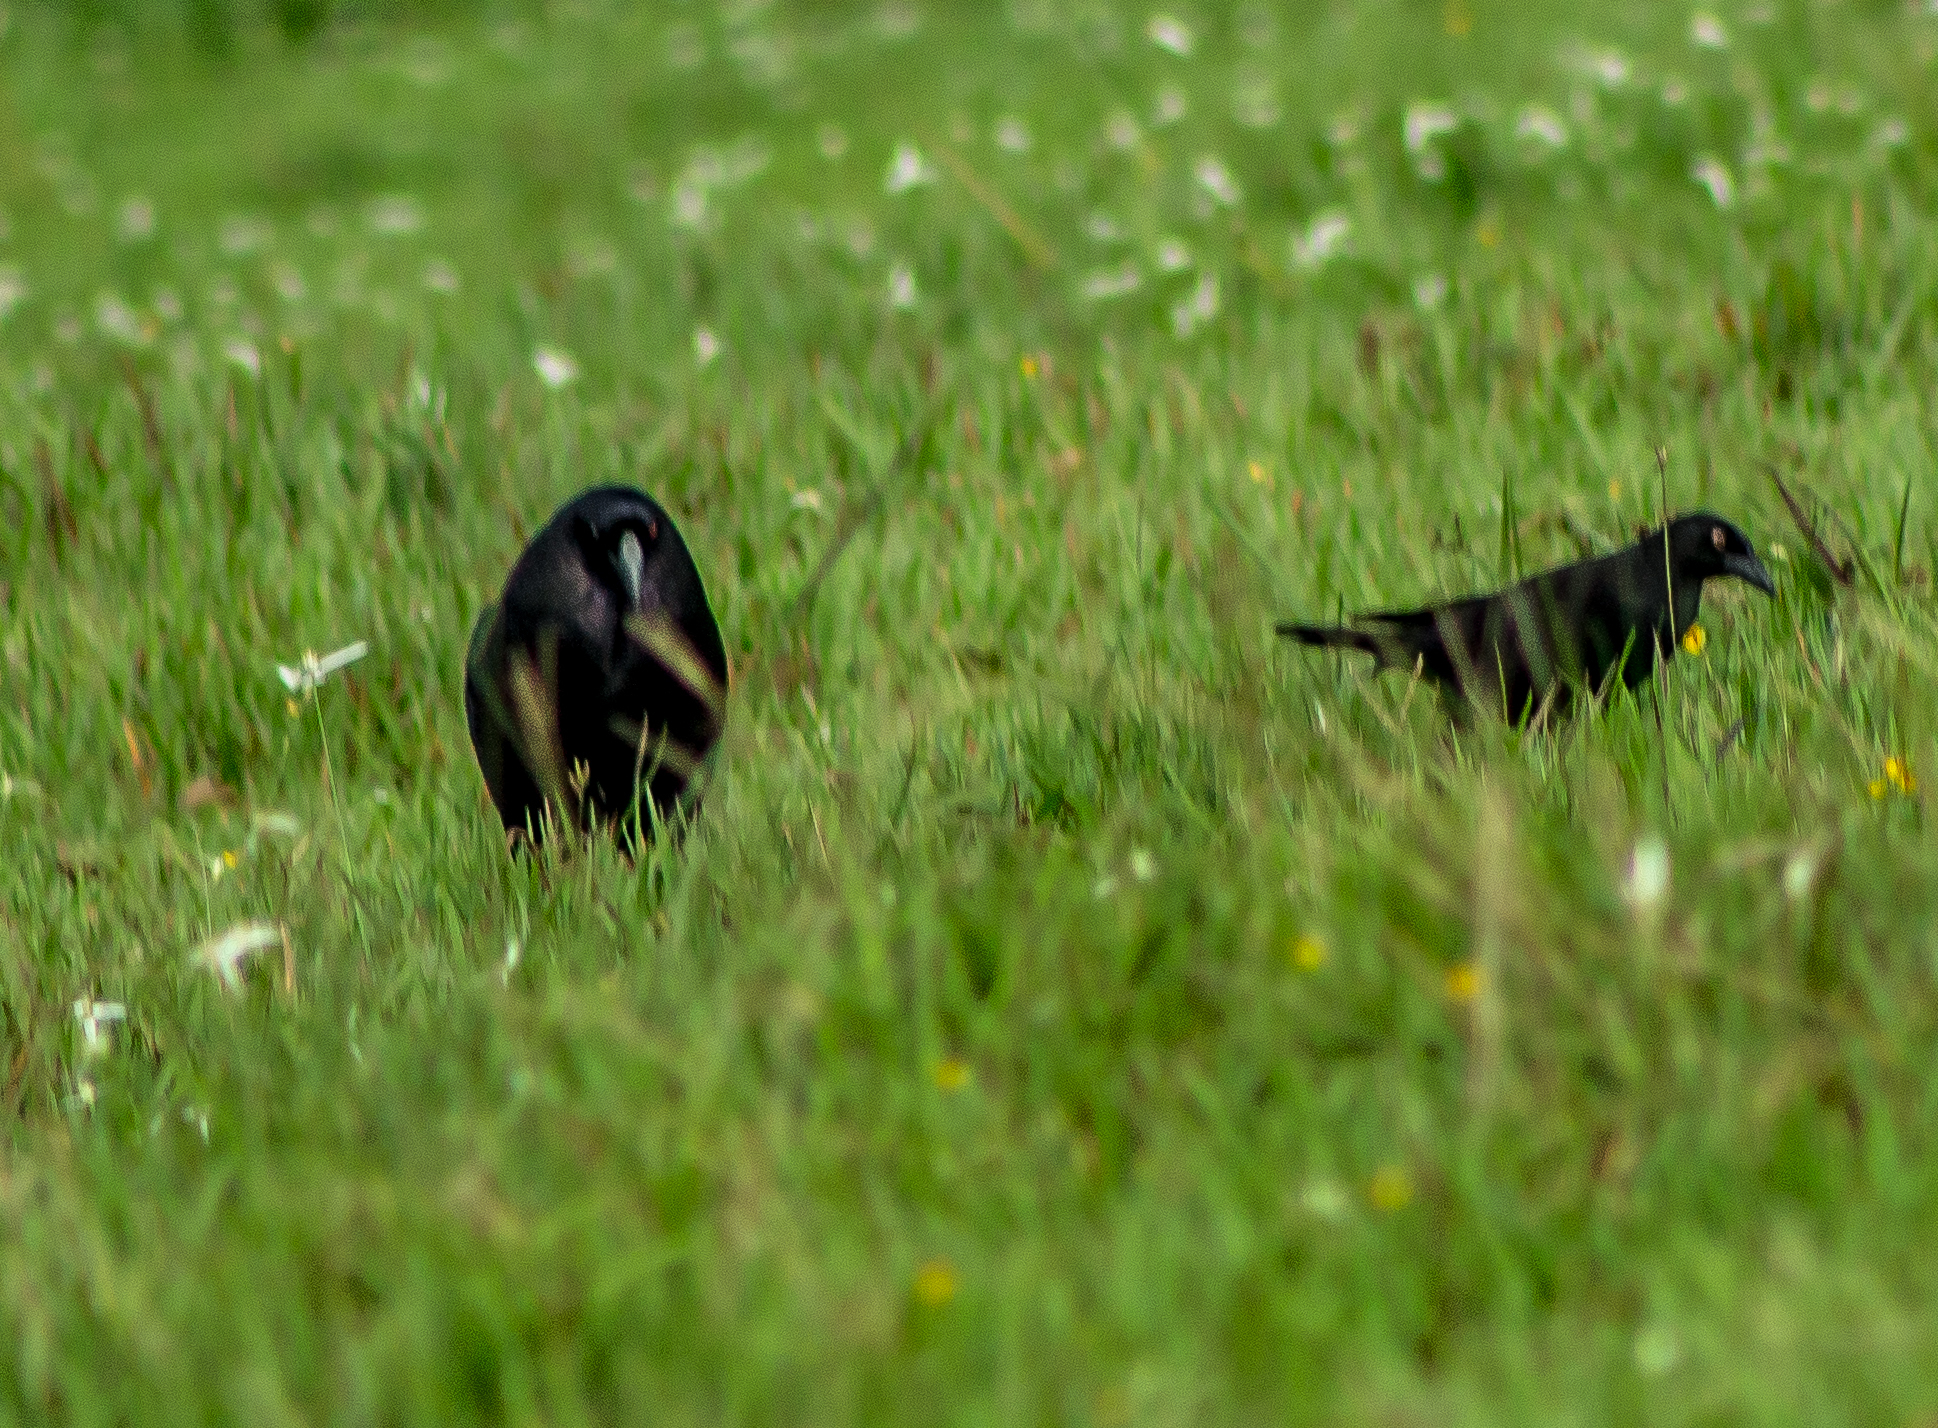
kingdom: Animalia
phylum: Chordata
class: Aves
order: Passeriformes
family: Icteridae
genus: Molothrus
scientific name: Molothrus oryzivorus
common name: Giant cowbird
